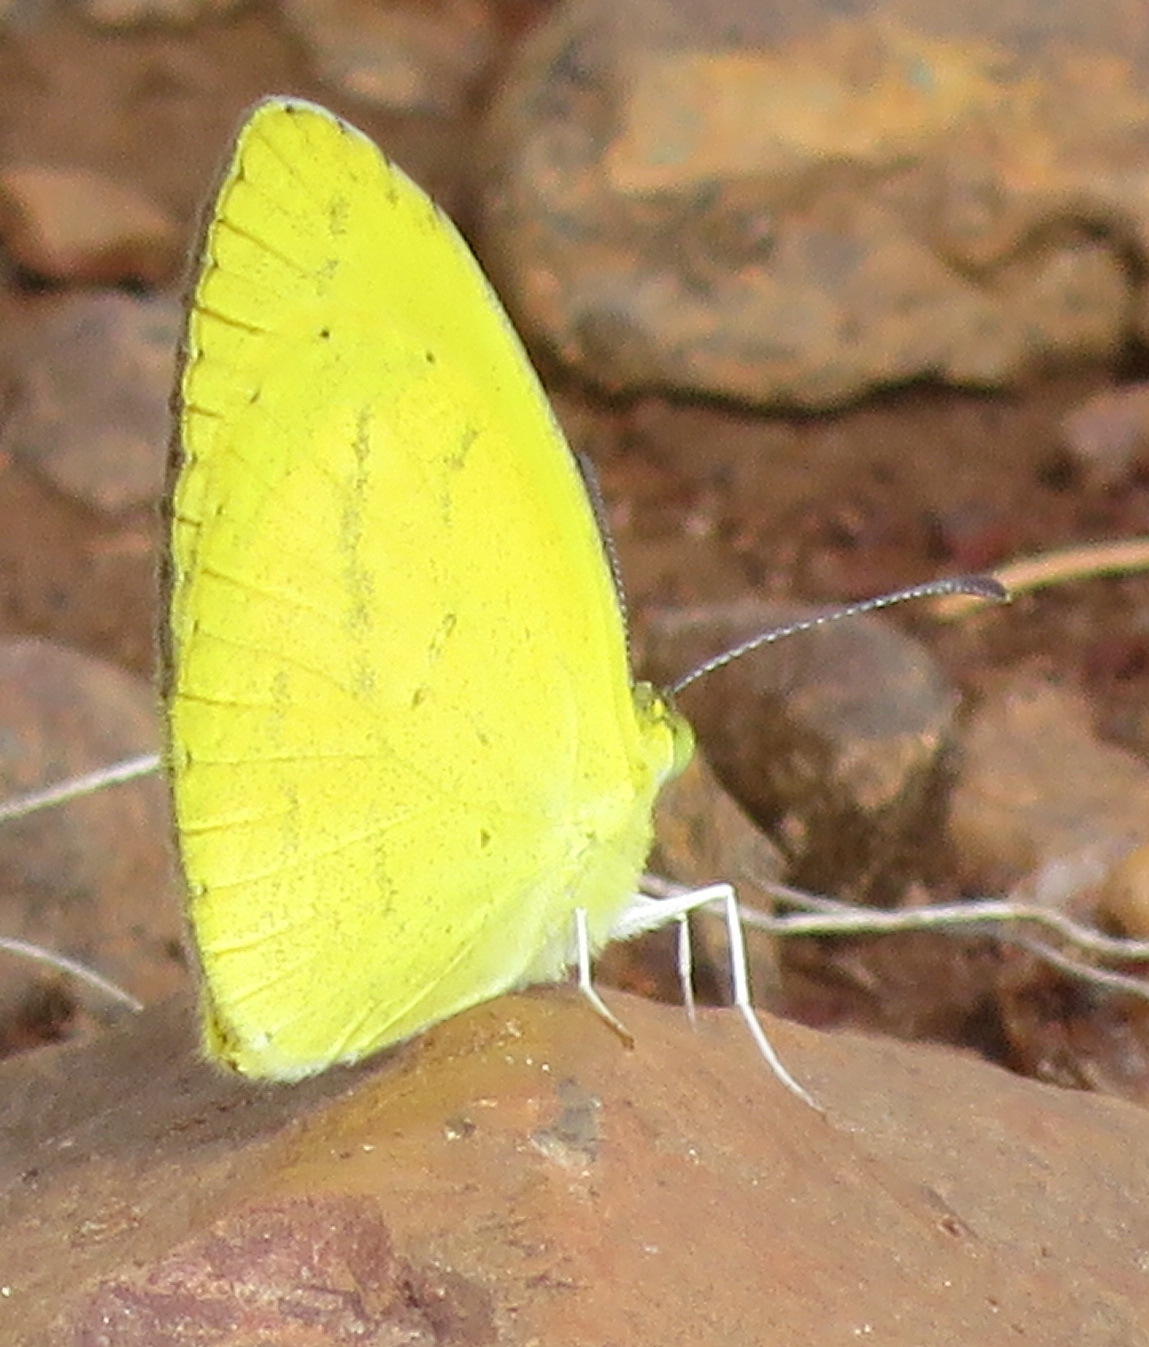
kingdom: Animalia
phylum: Arthropoda
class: Insecta
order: Lepidoptera
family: Pieridae
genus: Eurema
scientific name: Eurema brigitta
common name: Small grass yellow
